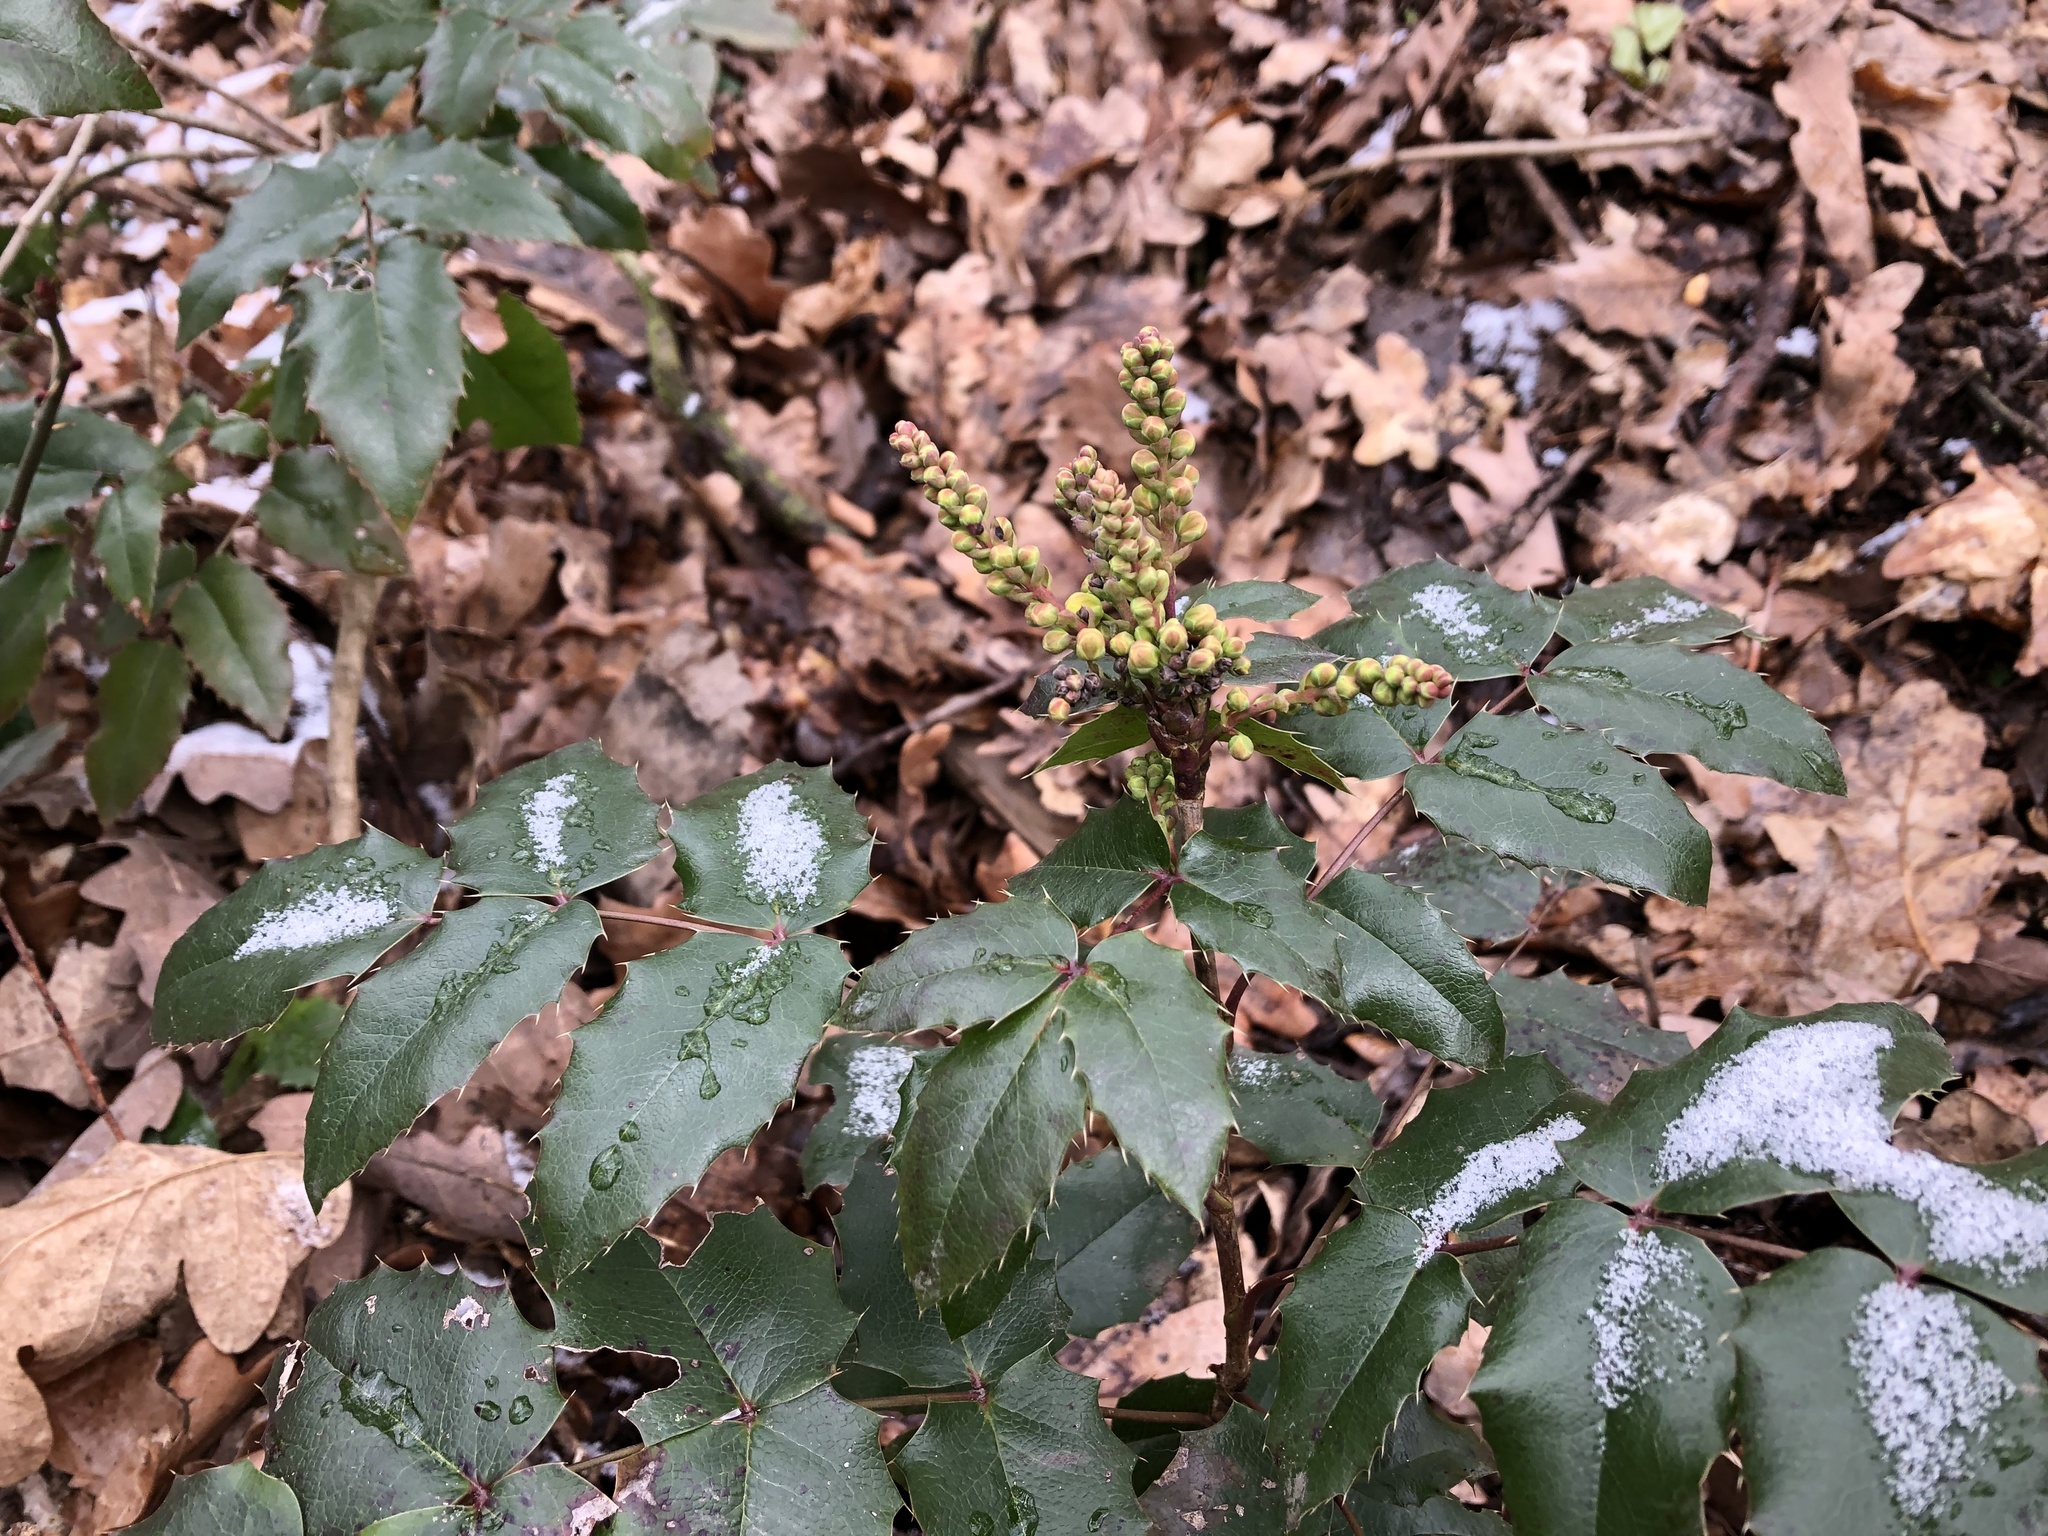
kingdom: Plantae
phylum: Tracheophyta
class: Magnoliopsida
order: Ranunculales
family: Berberidaceae
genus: Mahonia
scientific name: Mahonia aquifolium
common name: Oregon-grape
